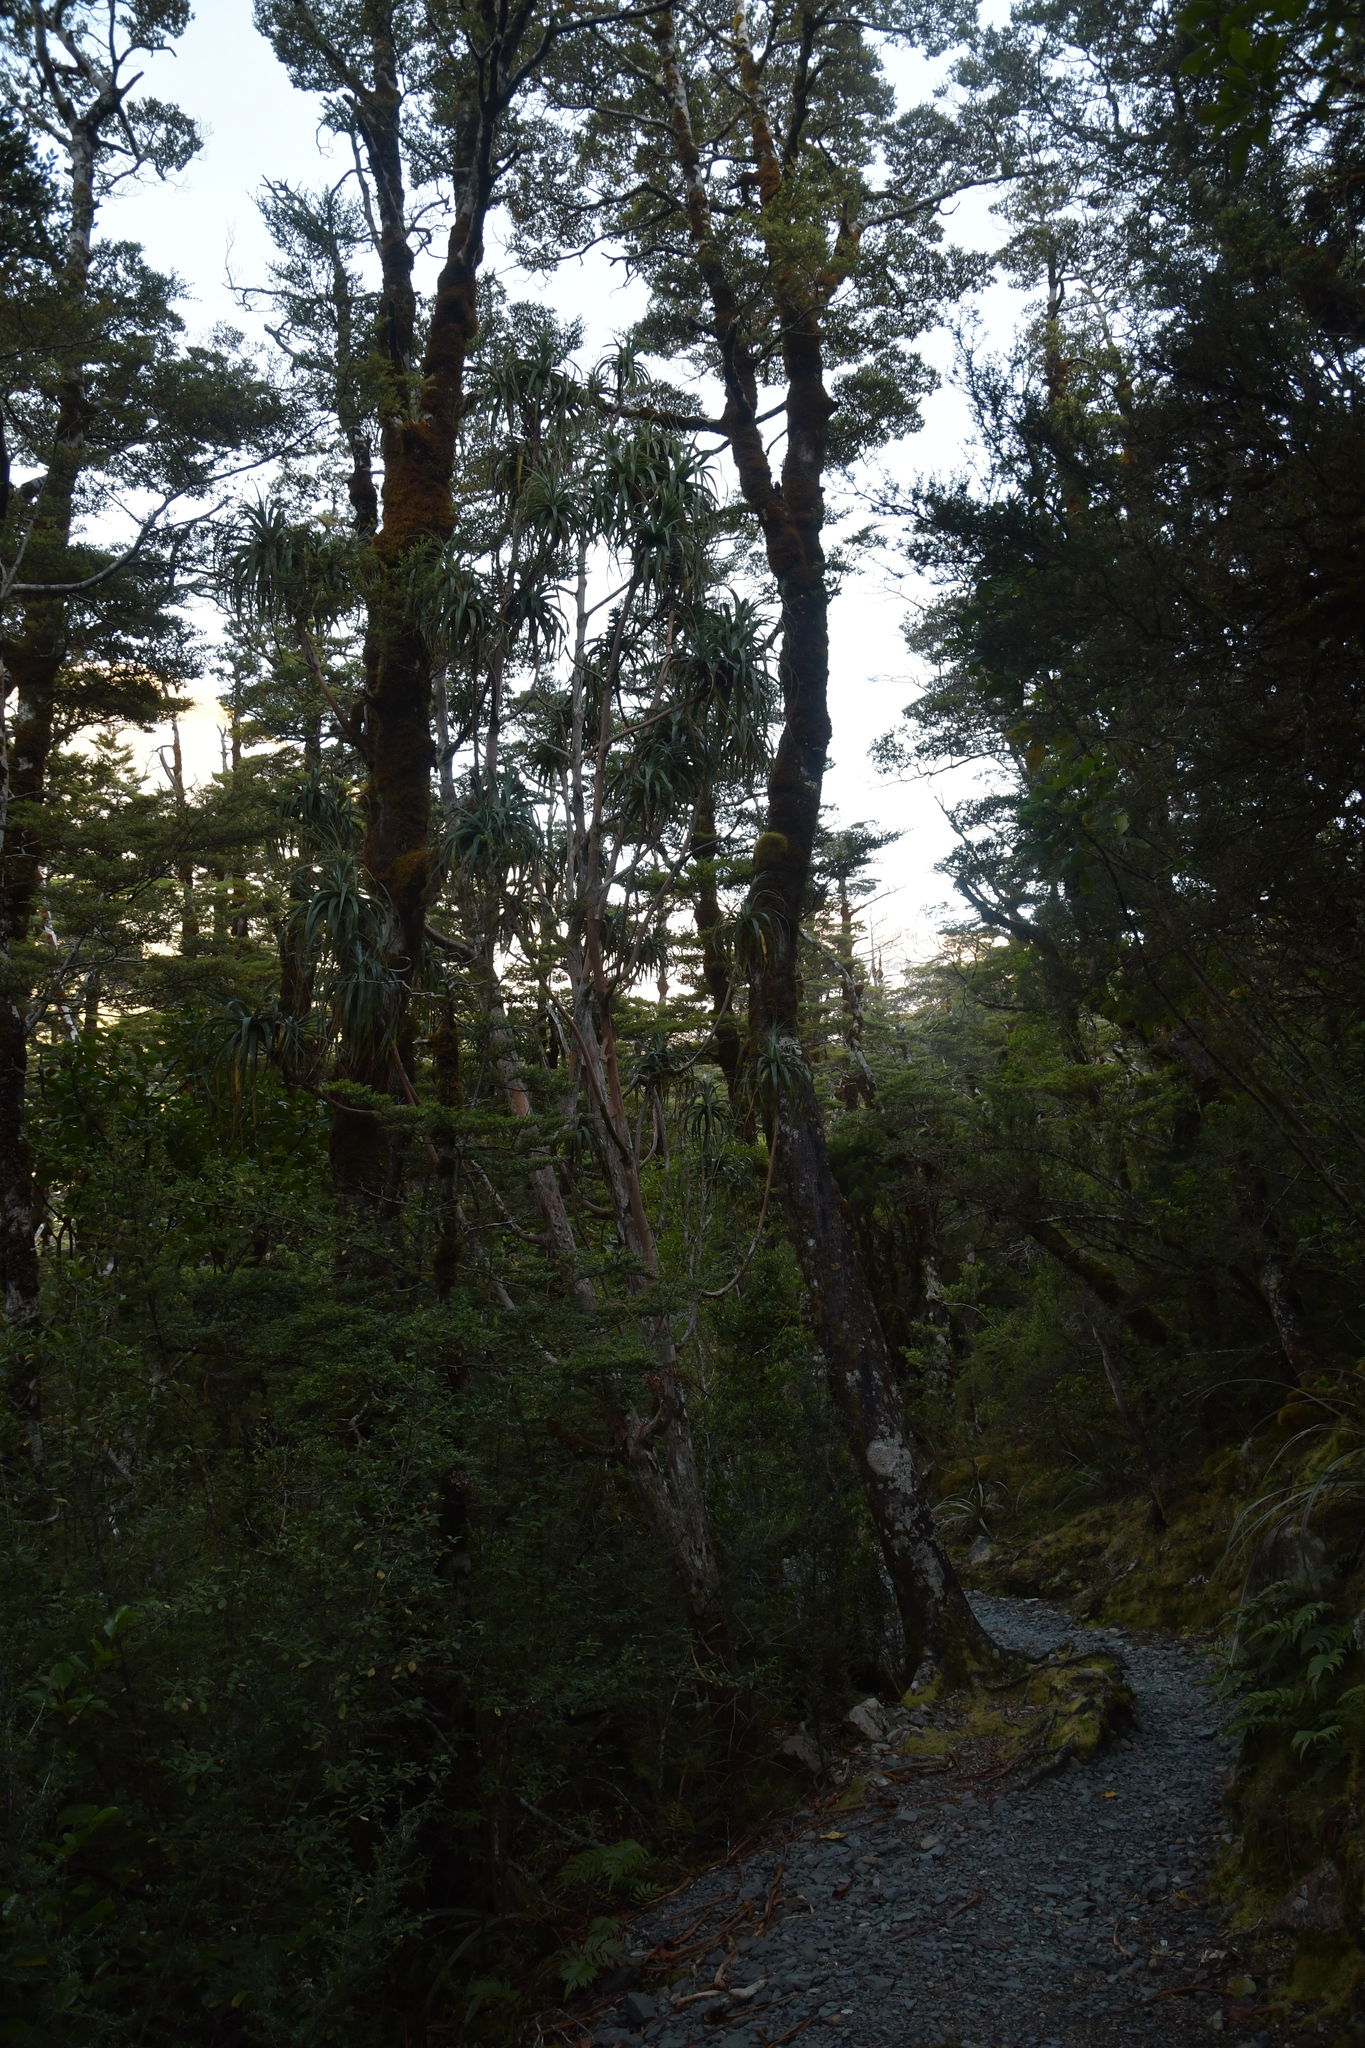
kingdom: Plantae
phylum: Tracheophyta
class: Magnoliopsida
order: Ericales
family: Ericaceae
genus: Dracophyllum
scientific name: Dracophyllum traversii
